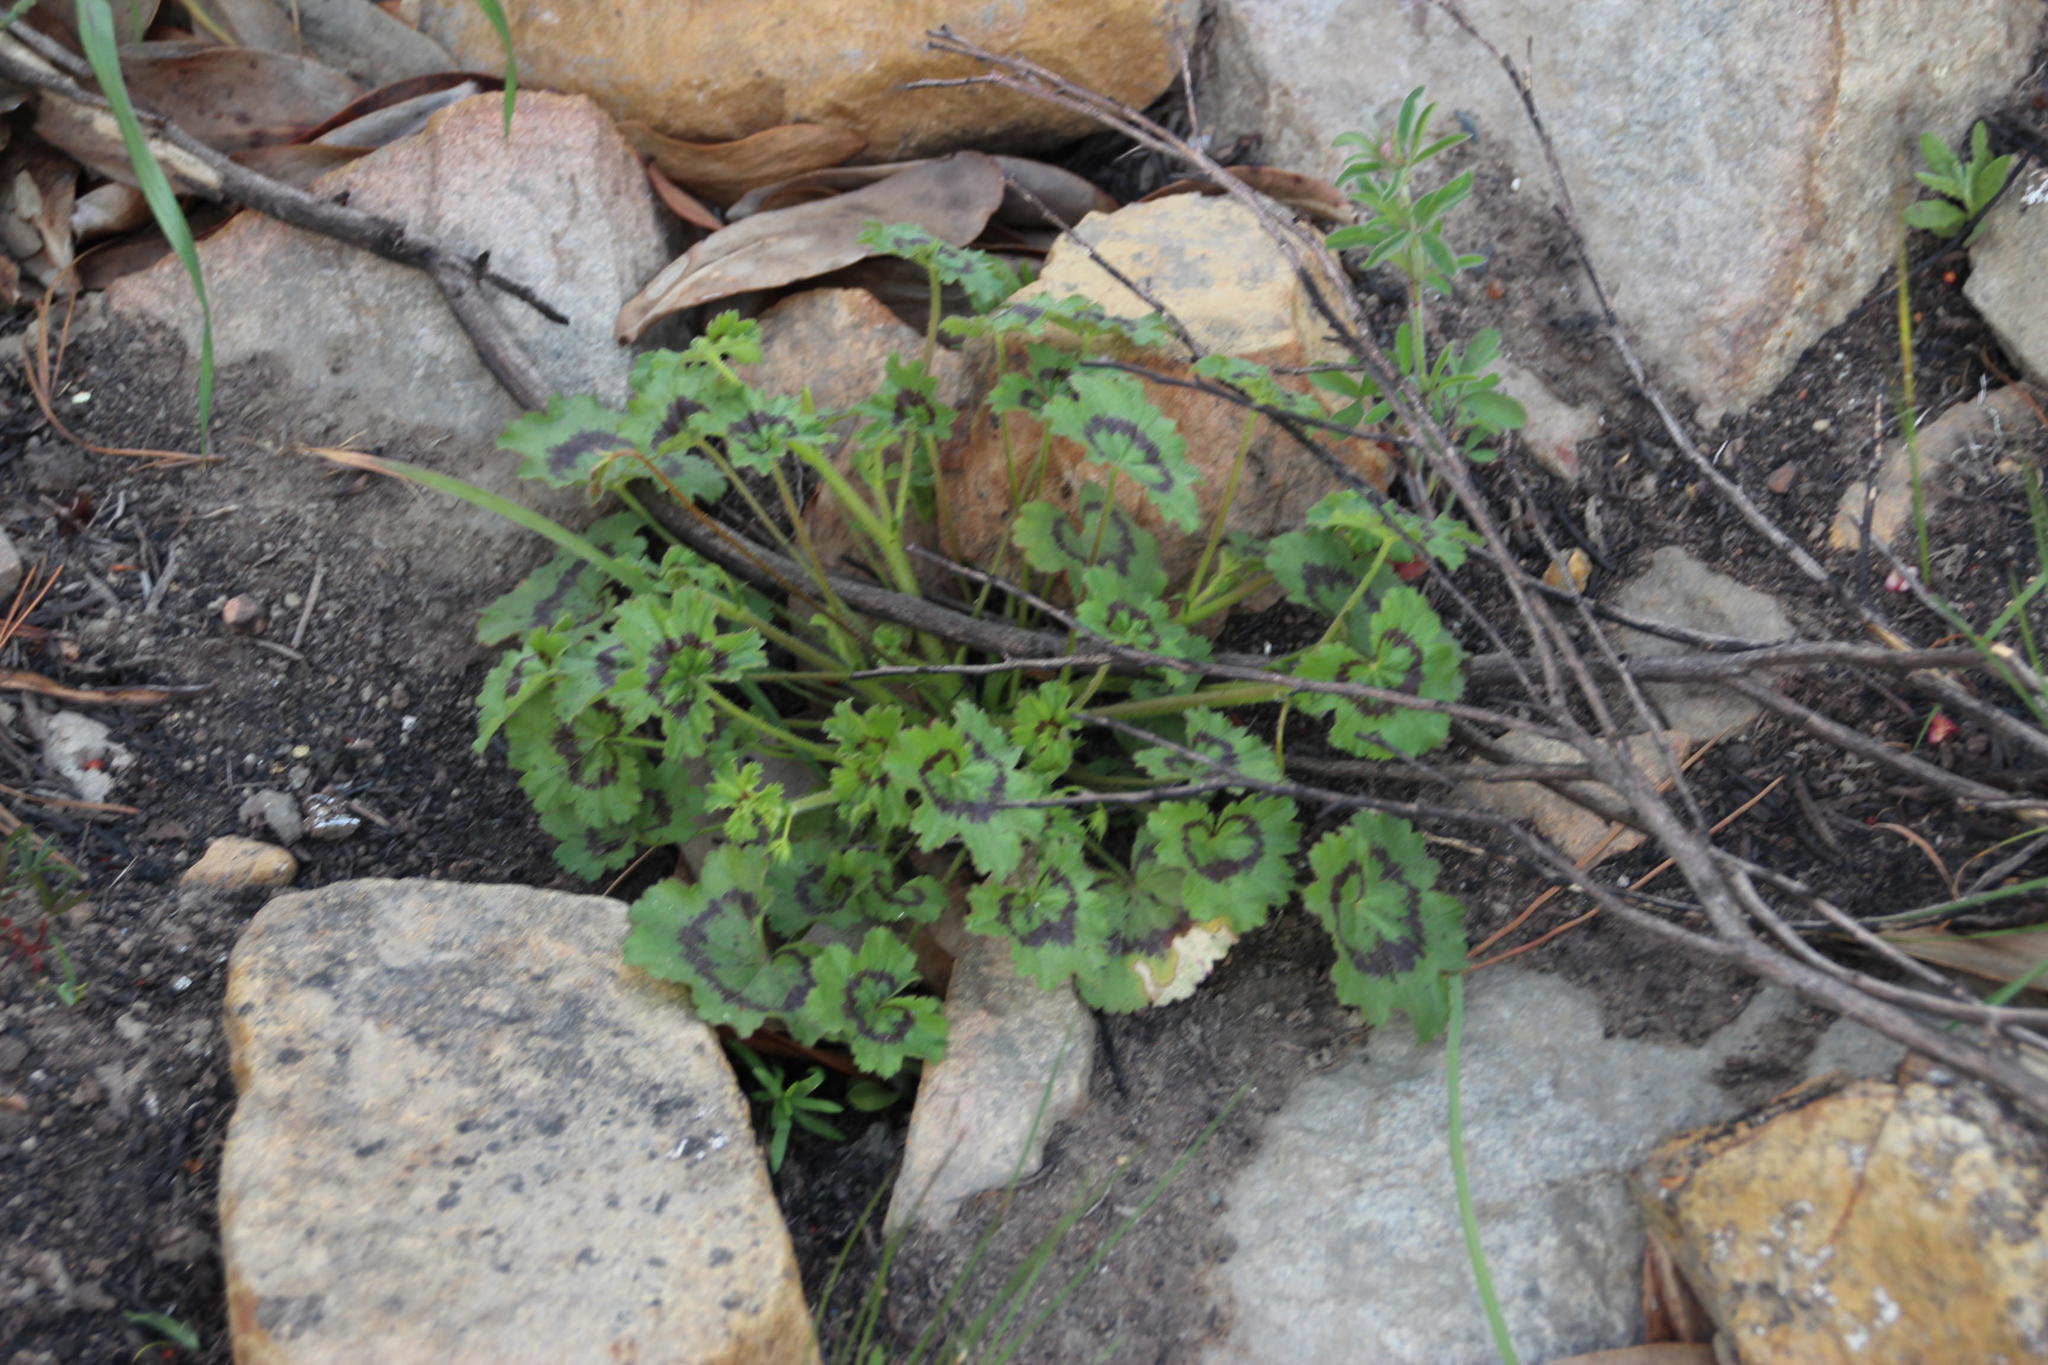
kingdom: Plantae
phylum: Tracheophyta
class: Magnoliopsida
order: Geraniales
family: Geraniaceae
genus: Pelargonium
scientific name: Pelargonium elongatum
